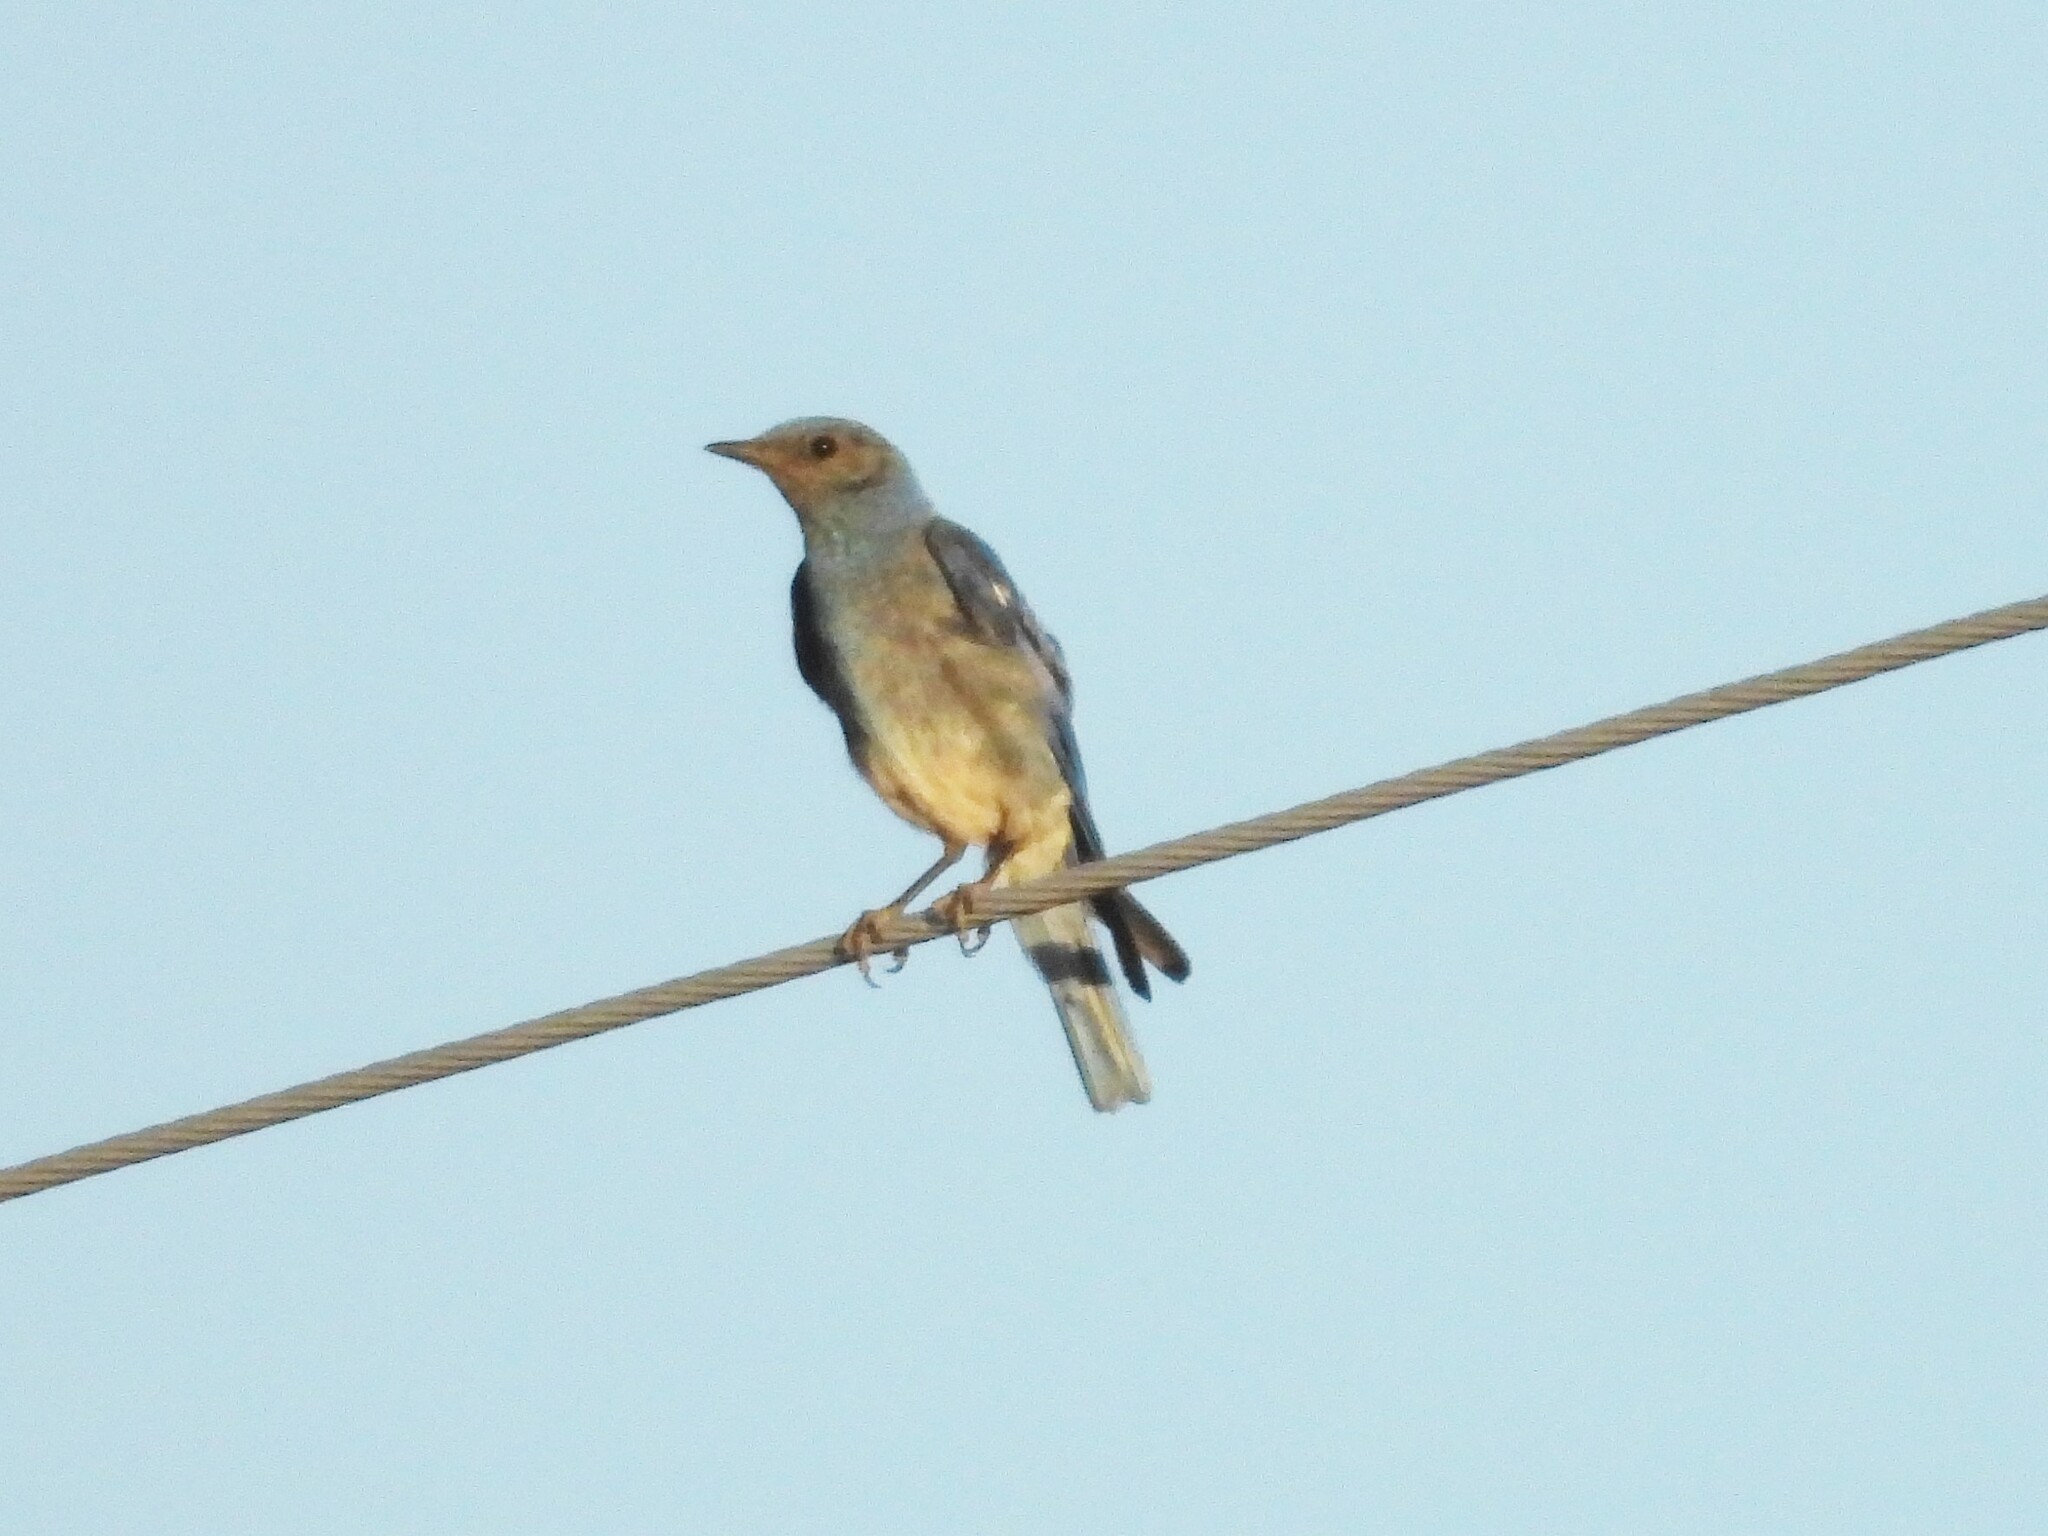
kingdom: Animalia
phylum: Chordata
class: Aves
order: Passeriformes
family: Turdidae
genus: Sialia
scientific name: Sialia currucoides
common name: Mountain bluebird
